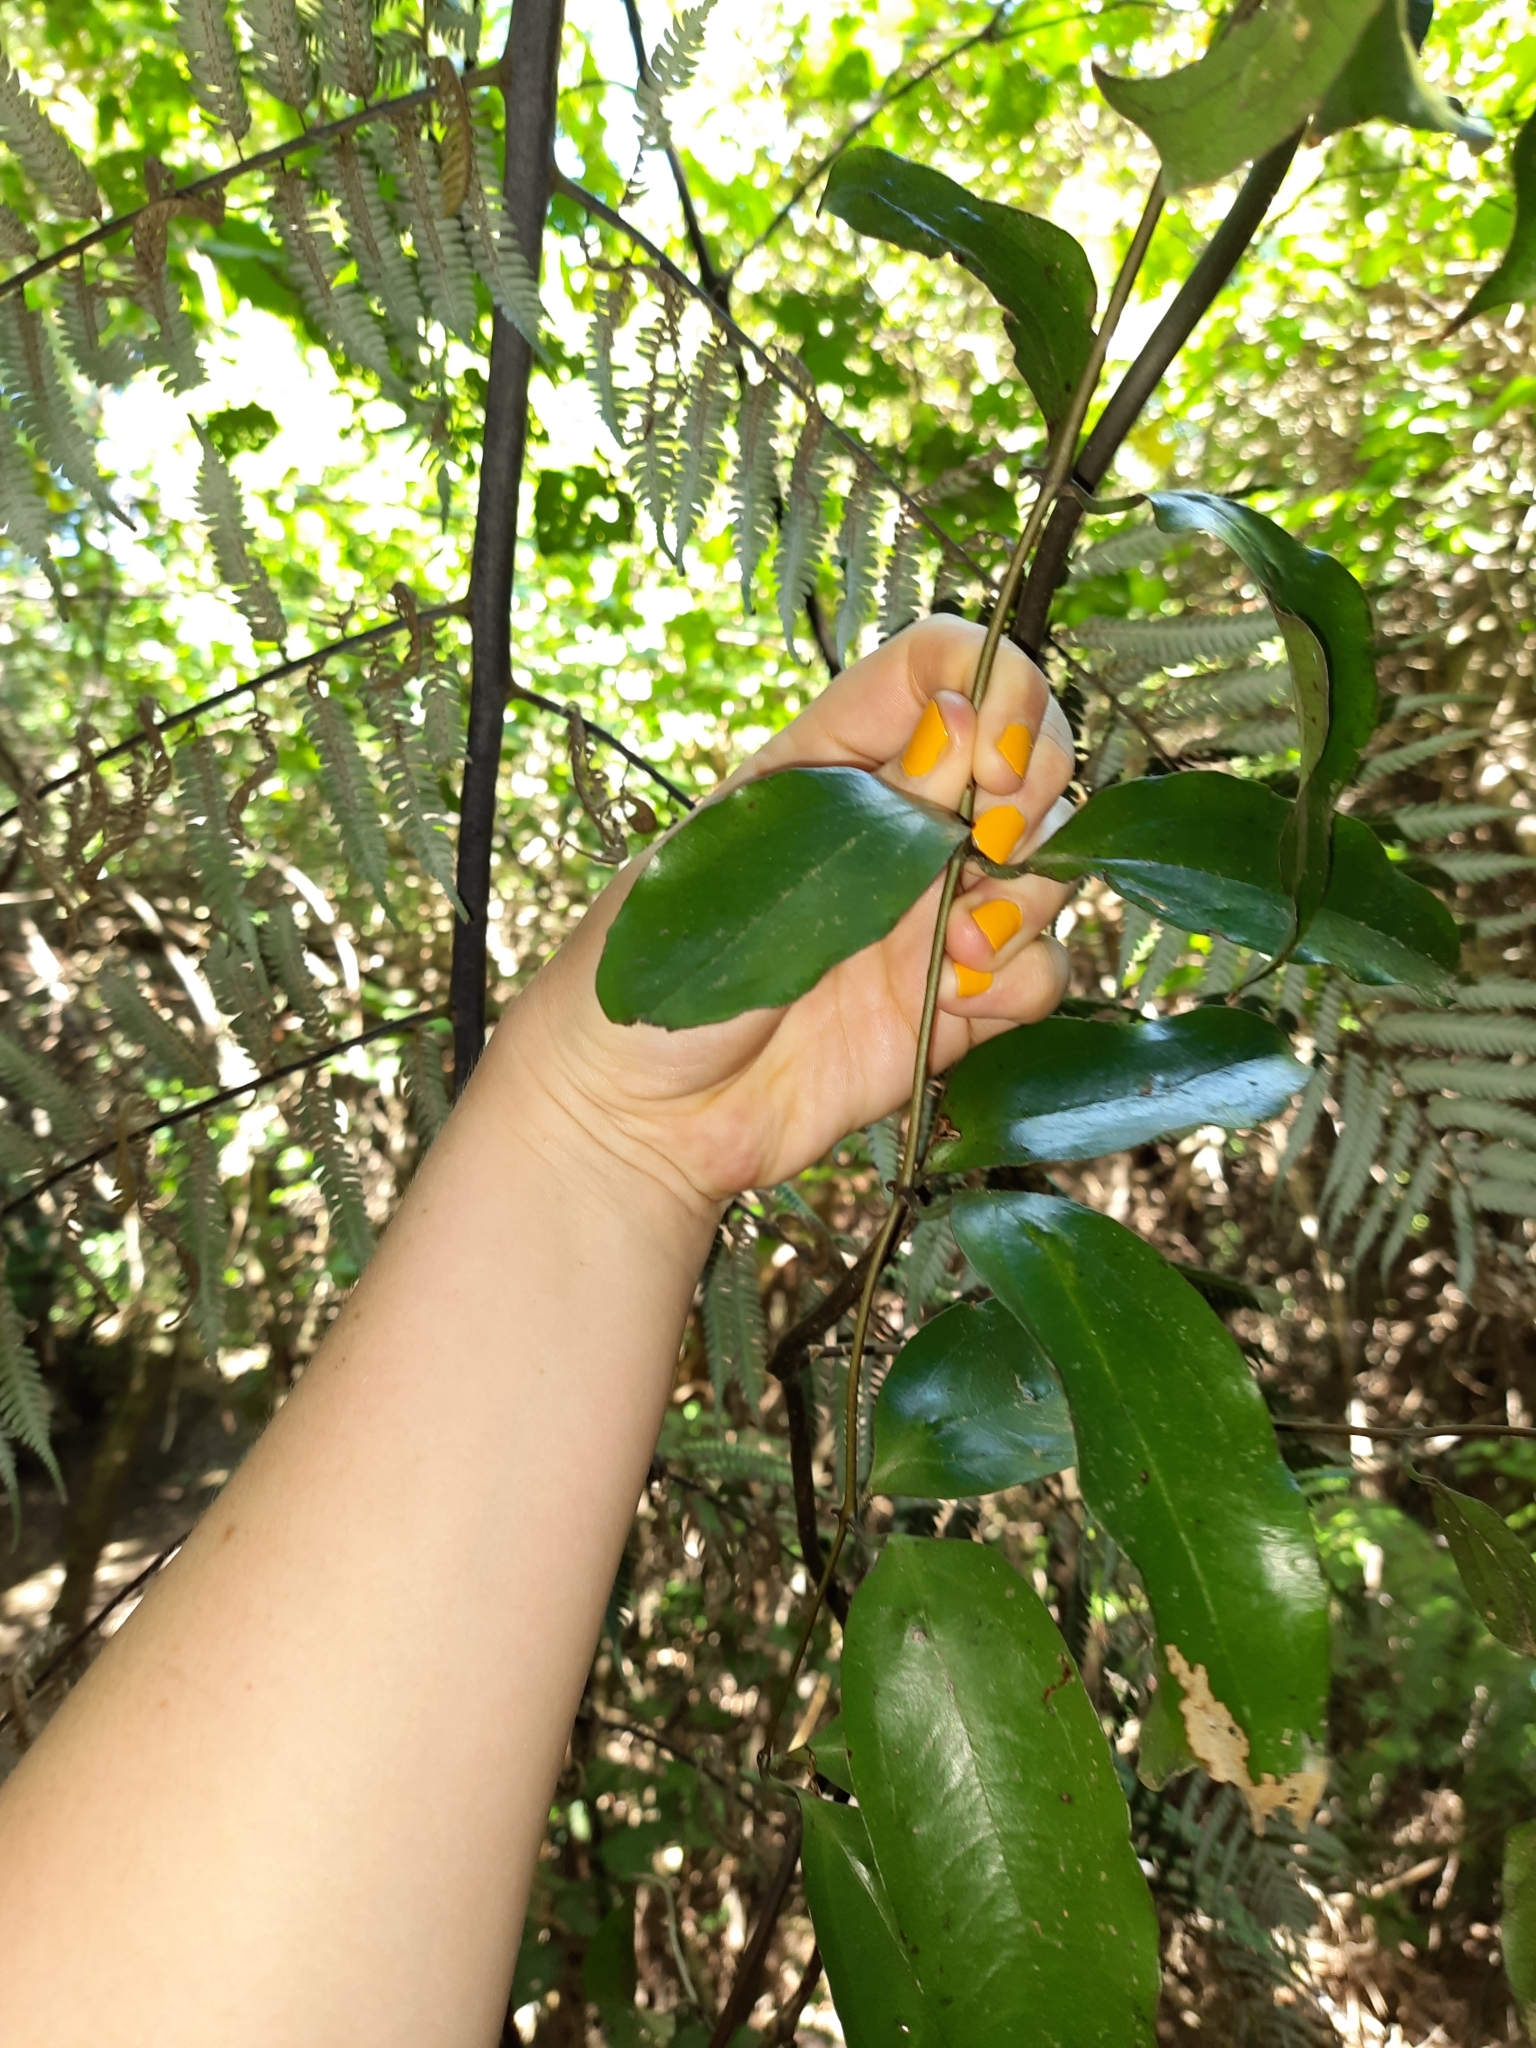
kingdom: Plantae
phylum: Tracheophyta
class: Liliopsida
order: Liliales
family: Ripogonaceae
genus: Ripogonum
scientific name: Ripogonum scandens
